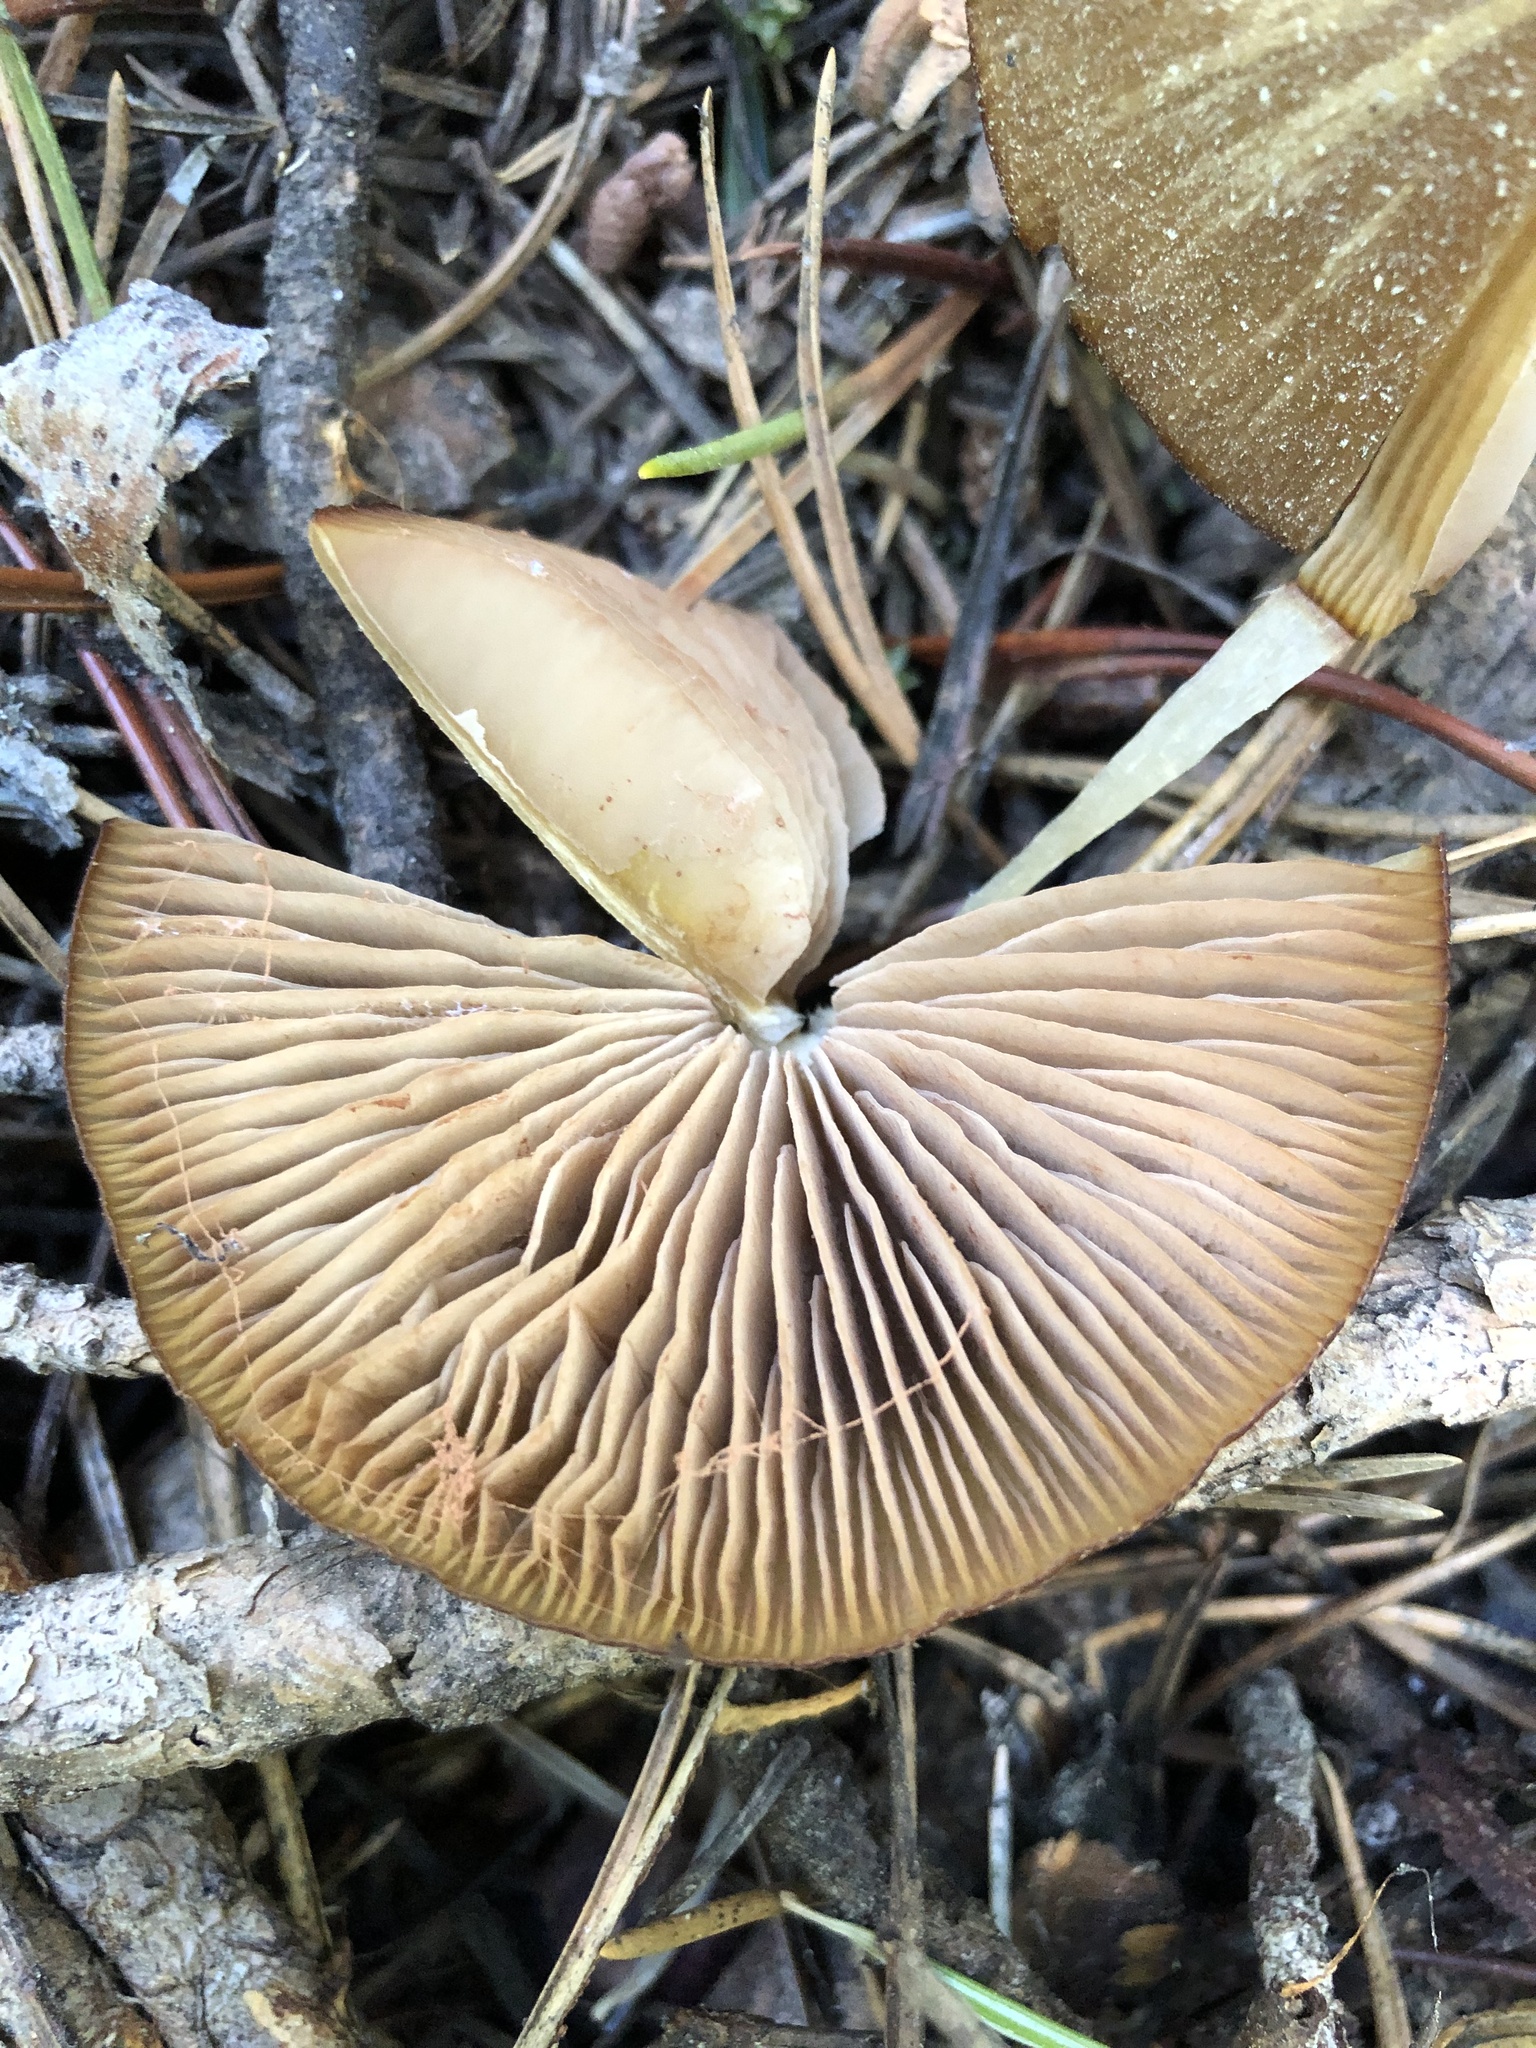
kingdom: Fungi
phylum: Basidiomycota
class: Agaricomycetes
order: Agaricales
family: Entolomataceae
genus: Entoloma
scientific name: Entoloma holoconiotum
